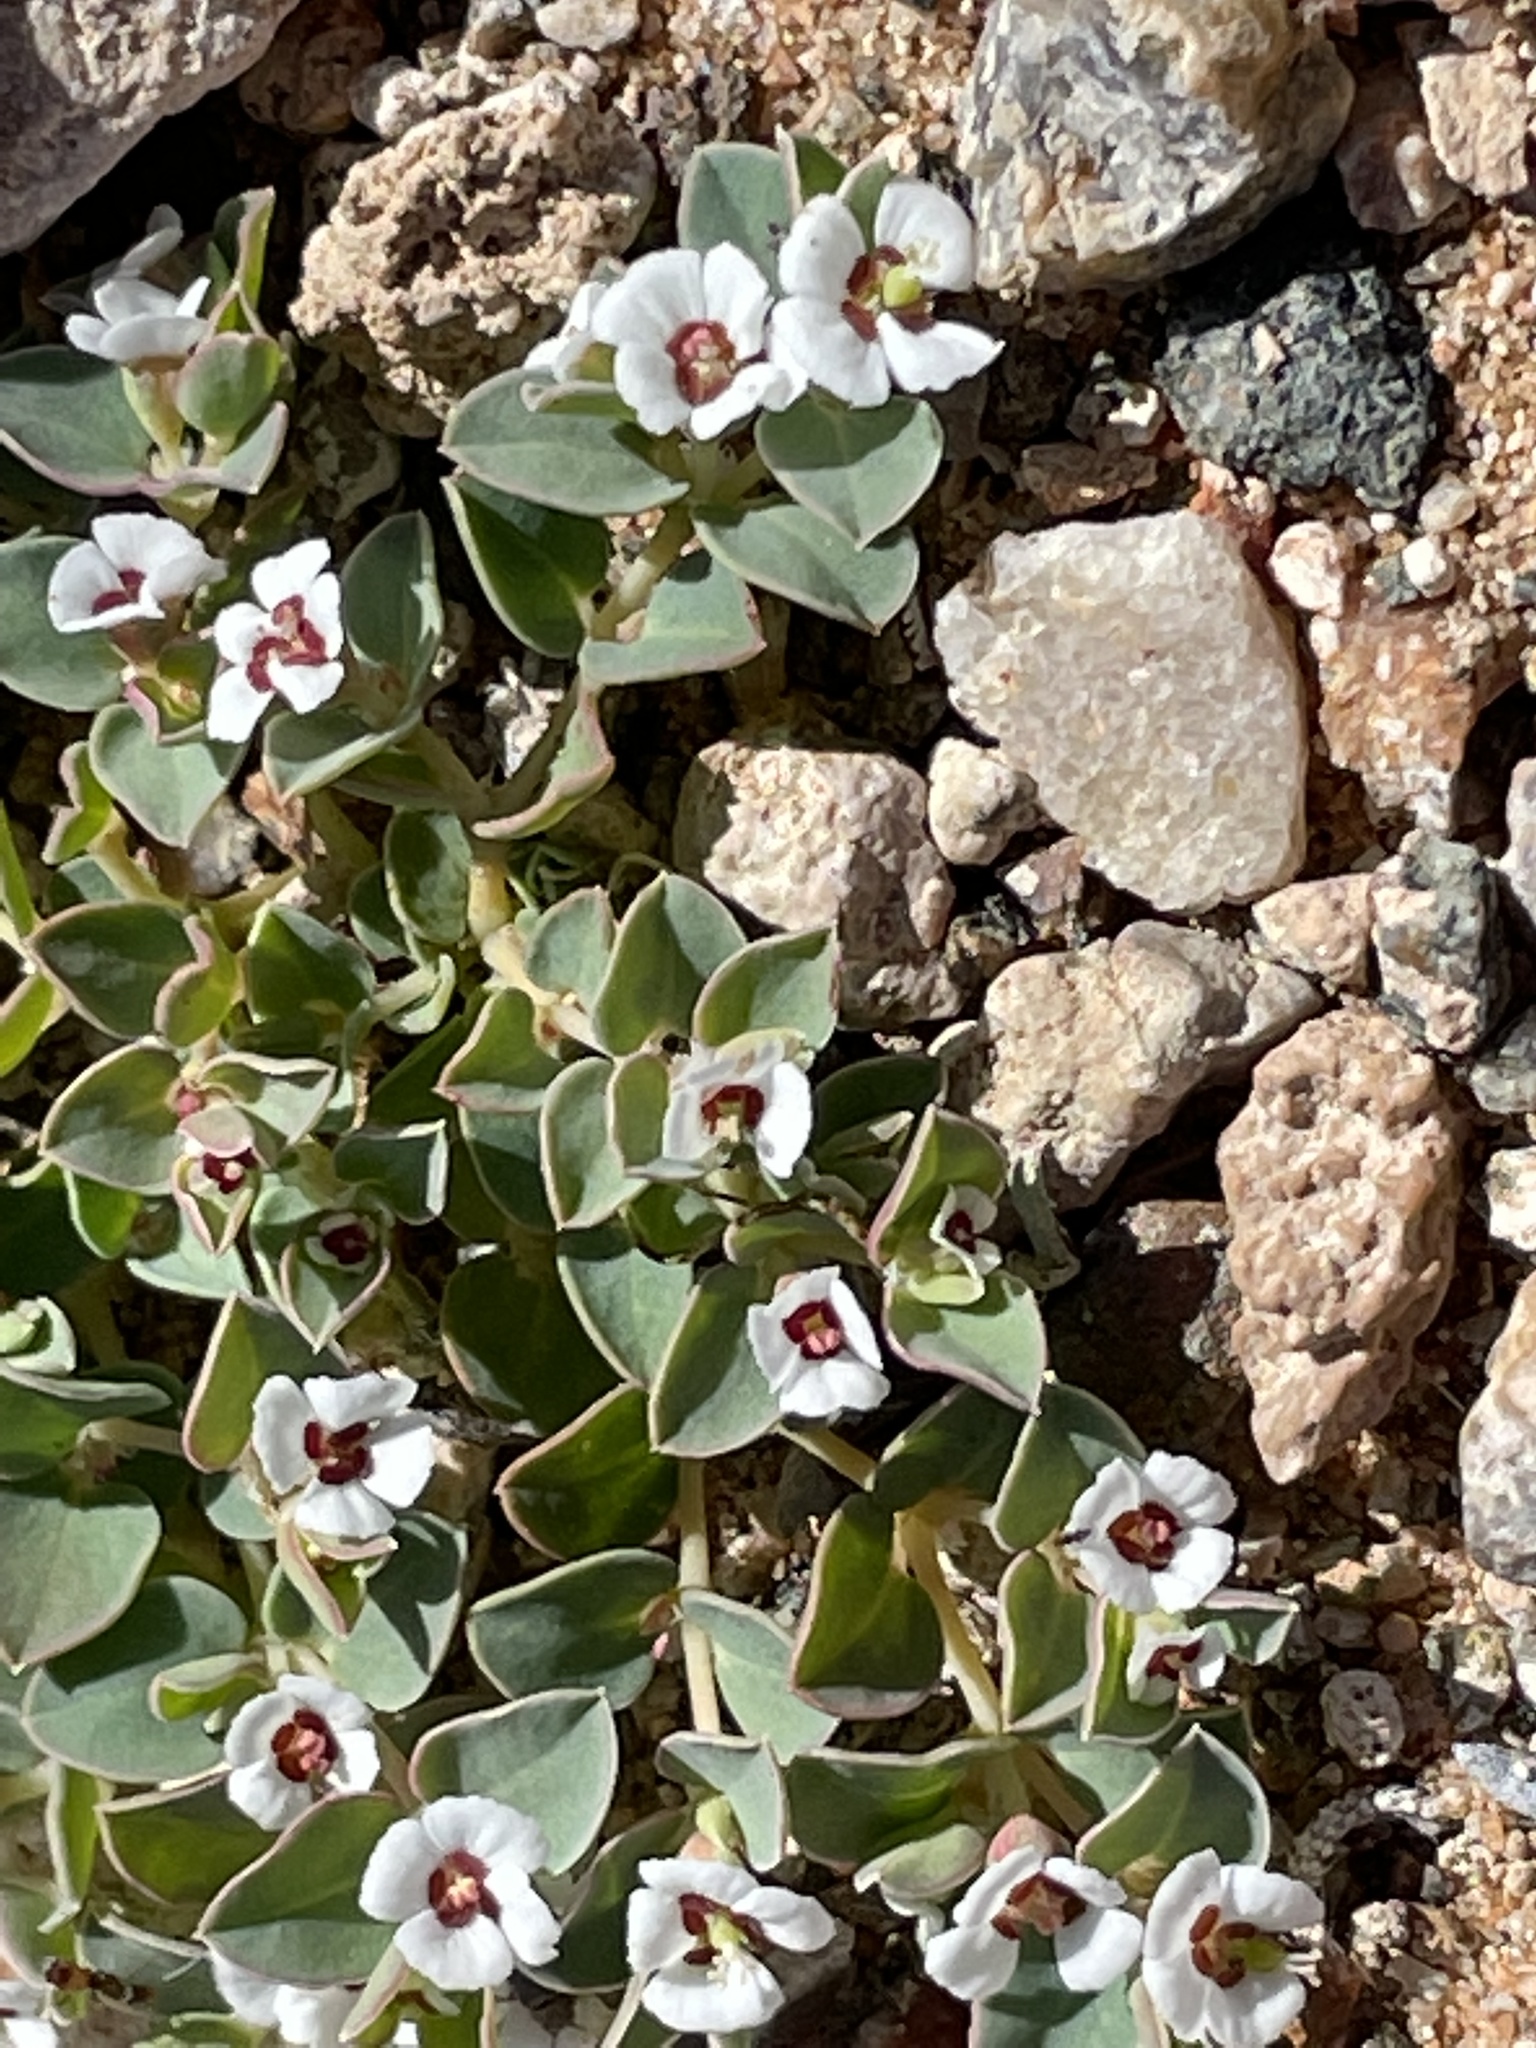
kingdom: Plantae
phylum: Tracheophyta
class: Magnoliopsida
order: Malpighiales
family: Euphorbiaceae
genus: Euphorbia
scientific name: Euphorbia albomarginata
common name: Whitemargin sandmat
